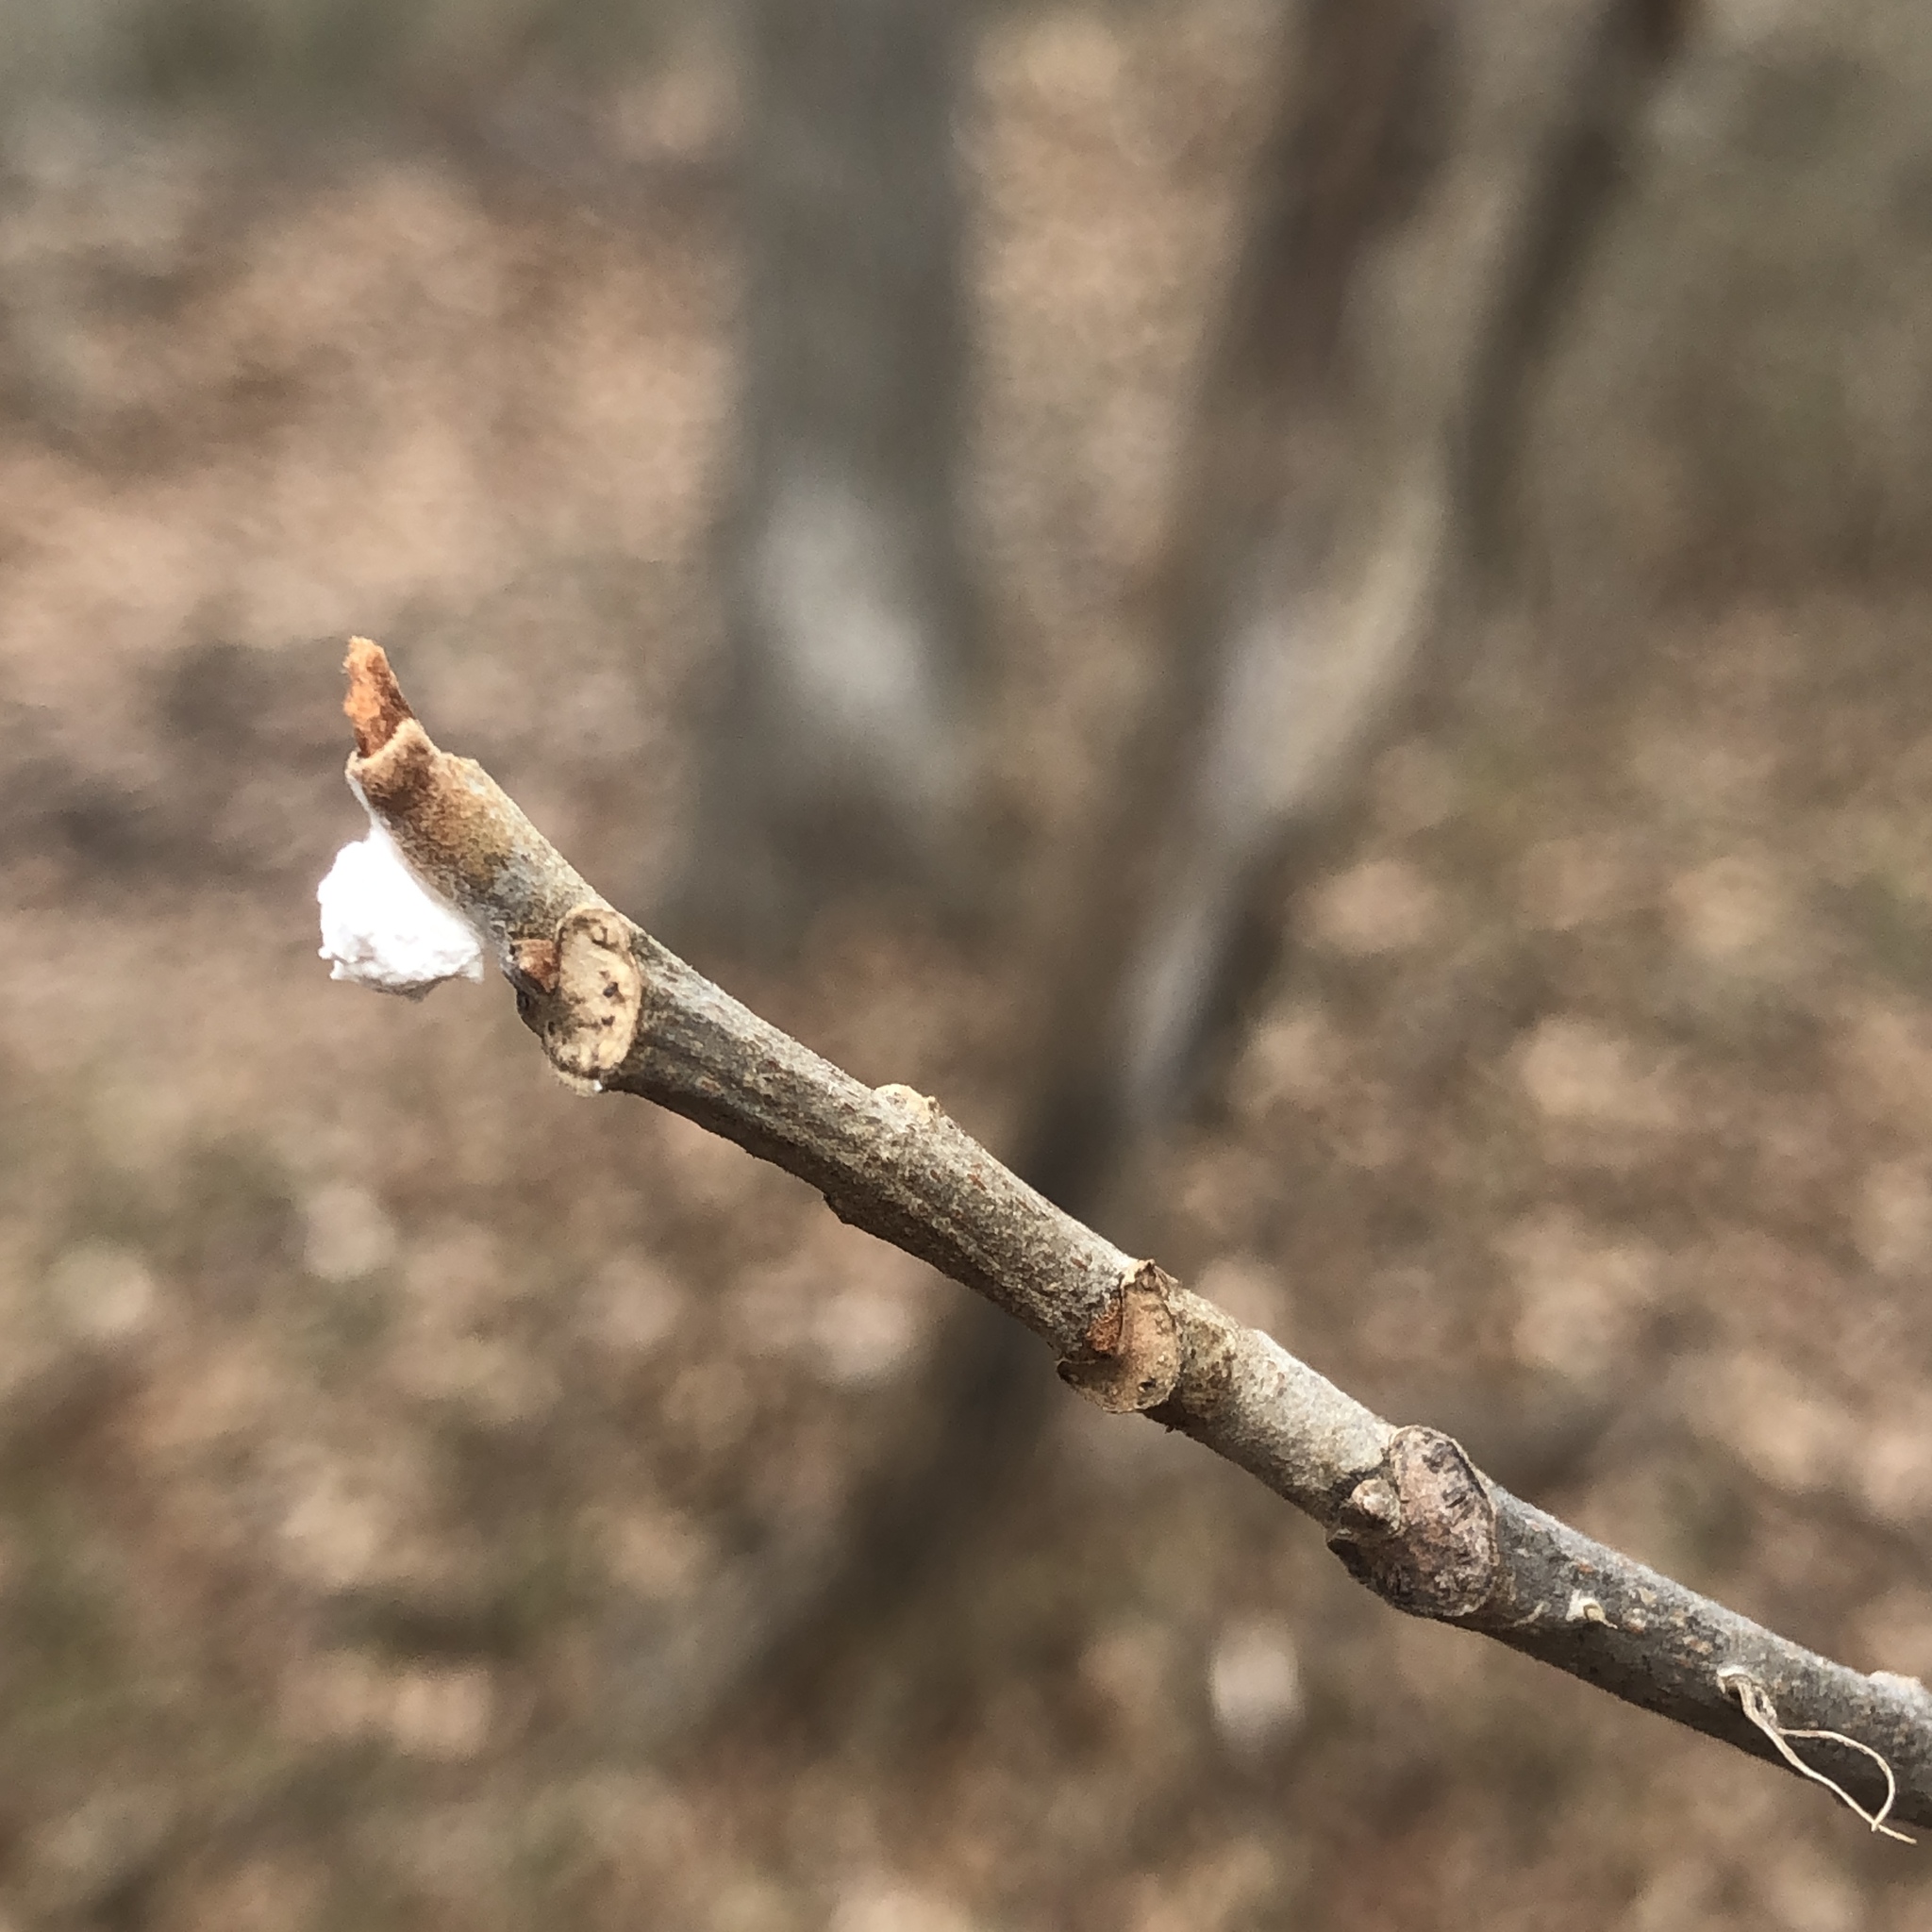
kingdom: Plantae
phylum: Tracheophyta
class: Magnoliopsida
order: Sapindales
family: Anacardiaceae
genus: Toxicodendron
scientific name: Toxicodendron radicans
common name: Poison ivy
